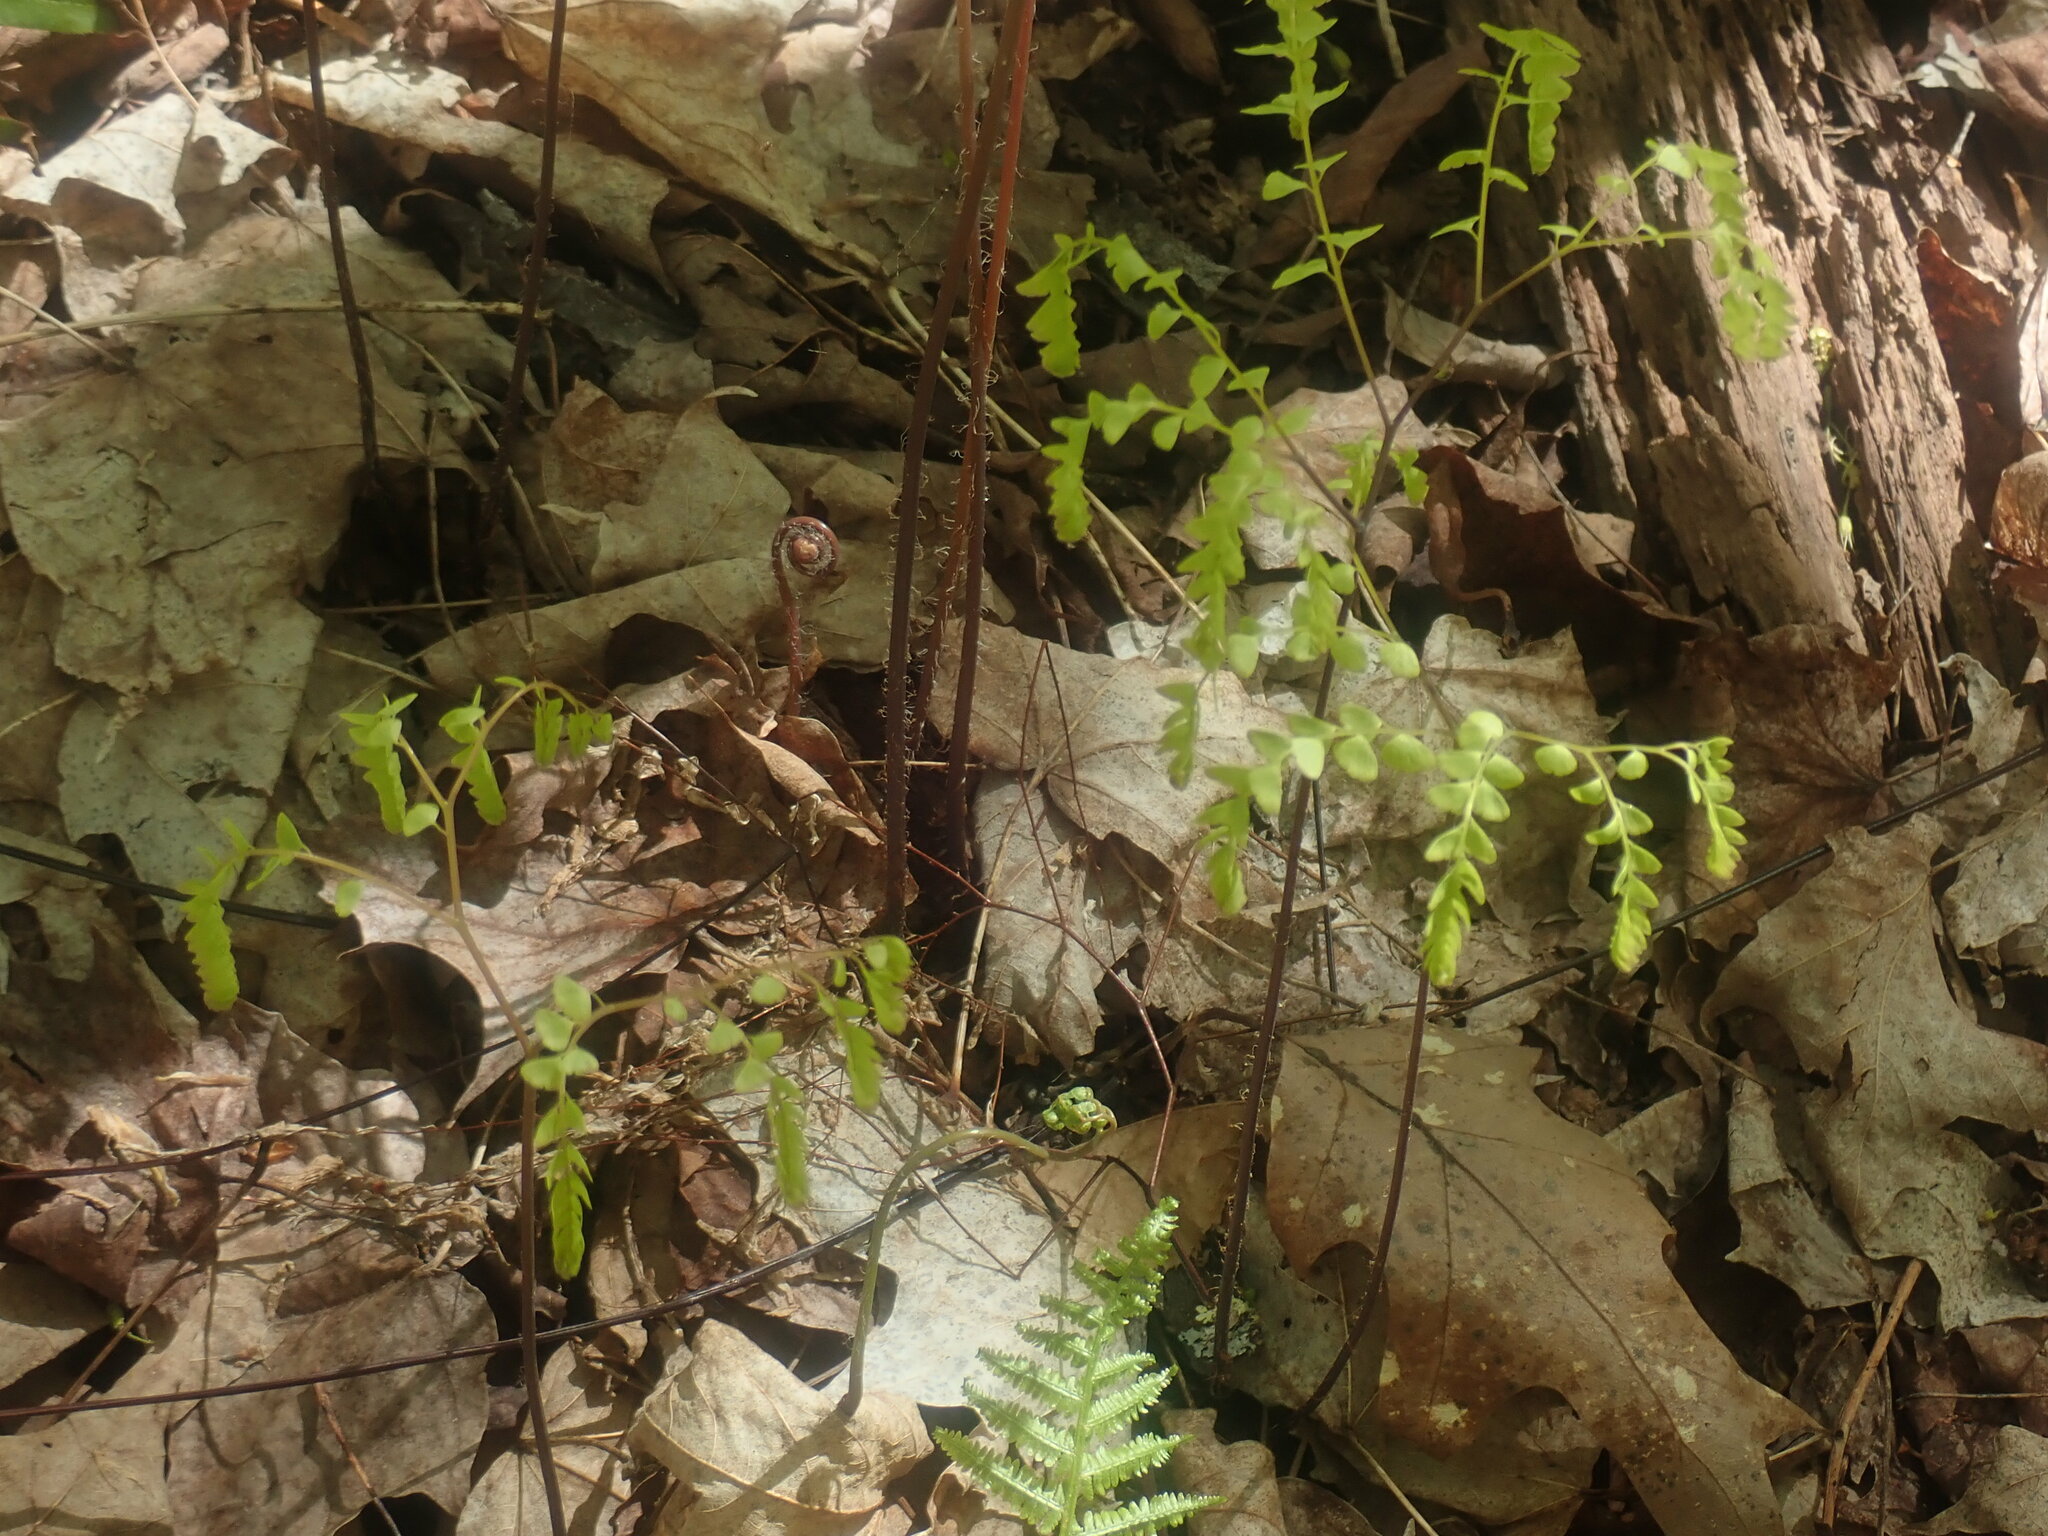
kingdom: Plantae
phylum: Tracheophyta
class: Polypodiopsida
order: Polypodiales
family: Pteridaceae
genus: Adiantum
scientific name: Adiantum pedatum
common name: Five-finger fern
